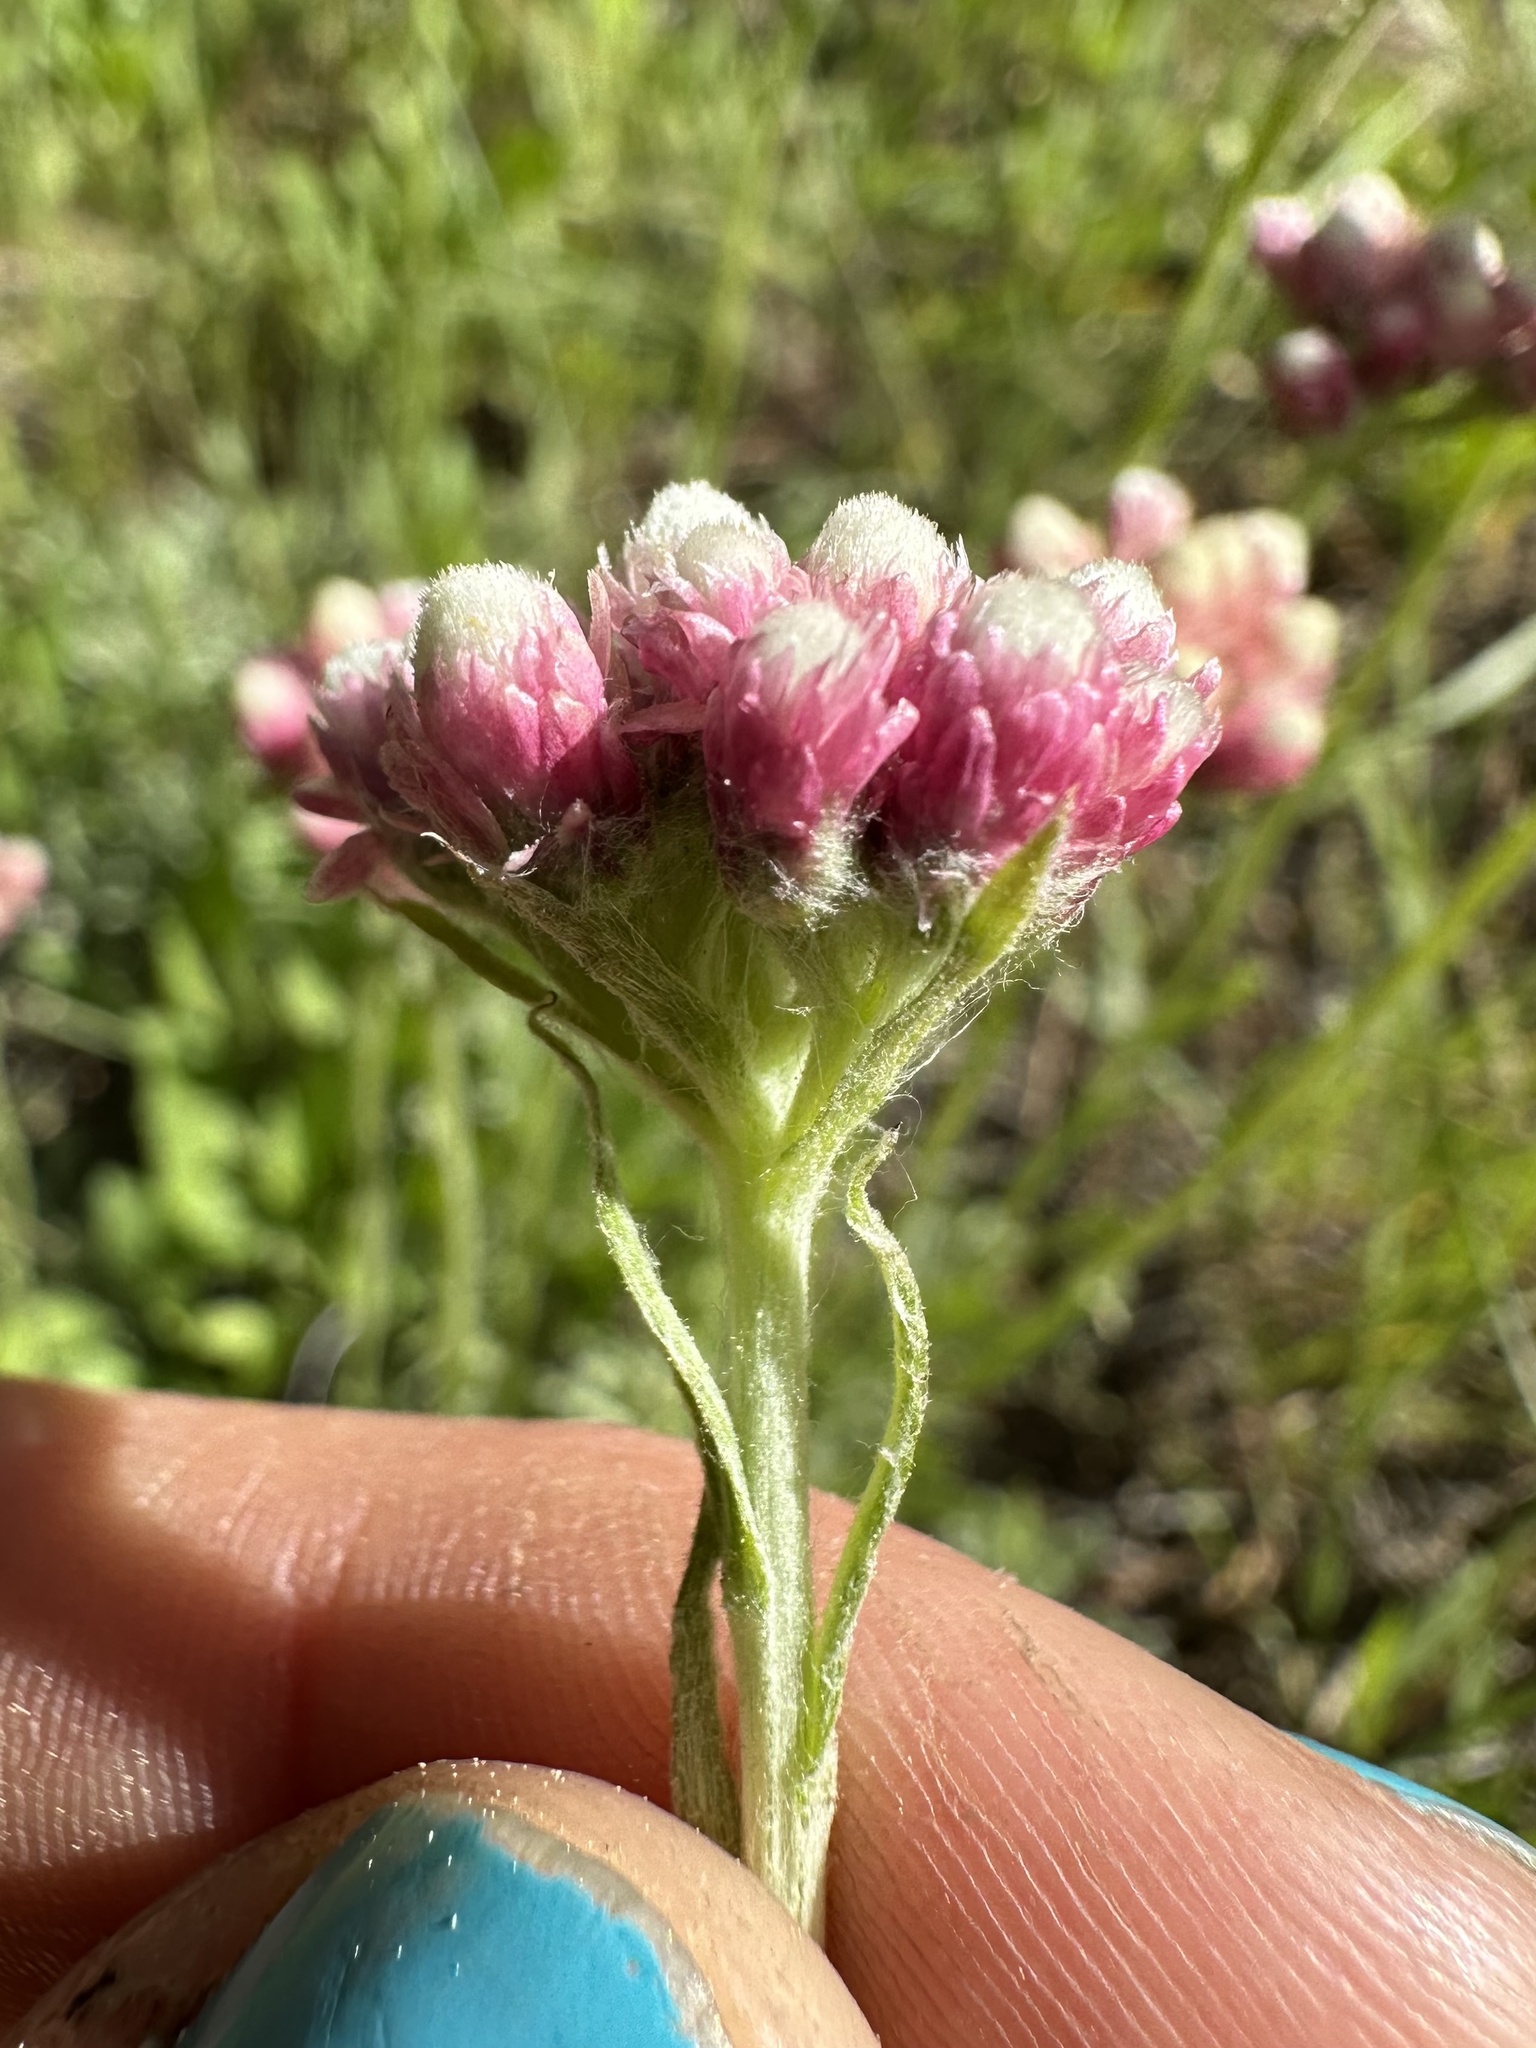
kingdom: Plantae
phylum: Tracheophyta
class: Magnoliopsida
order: Asterales
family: Asteraceae
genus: Antennaria
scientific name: Antennaria rosea
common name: Rosy pussytoes
